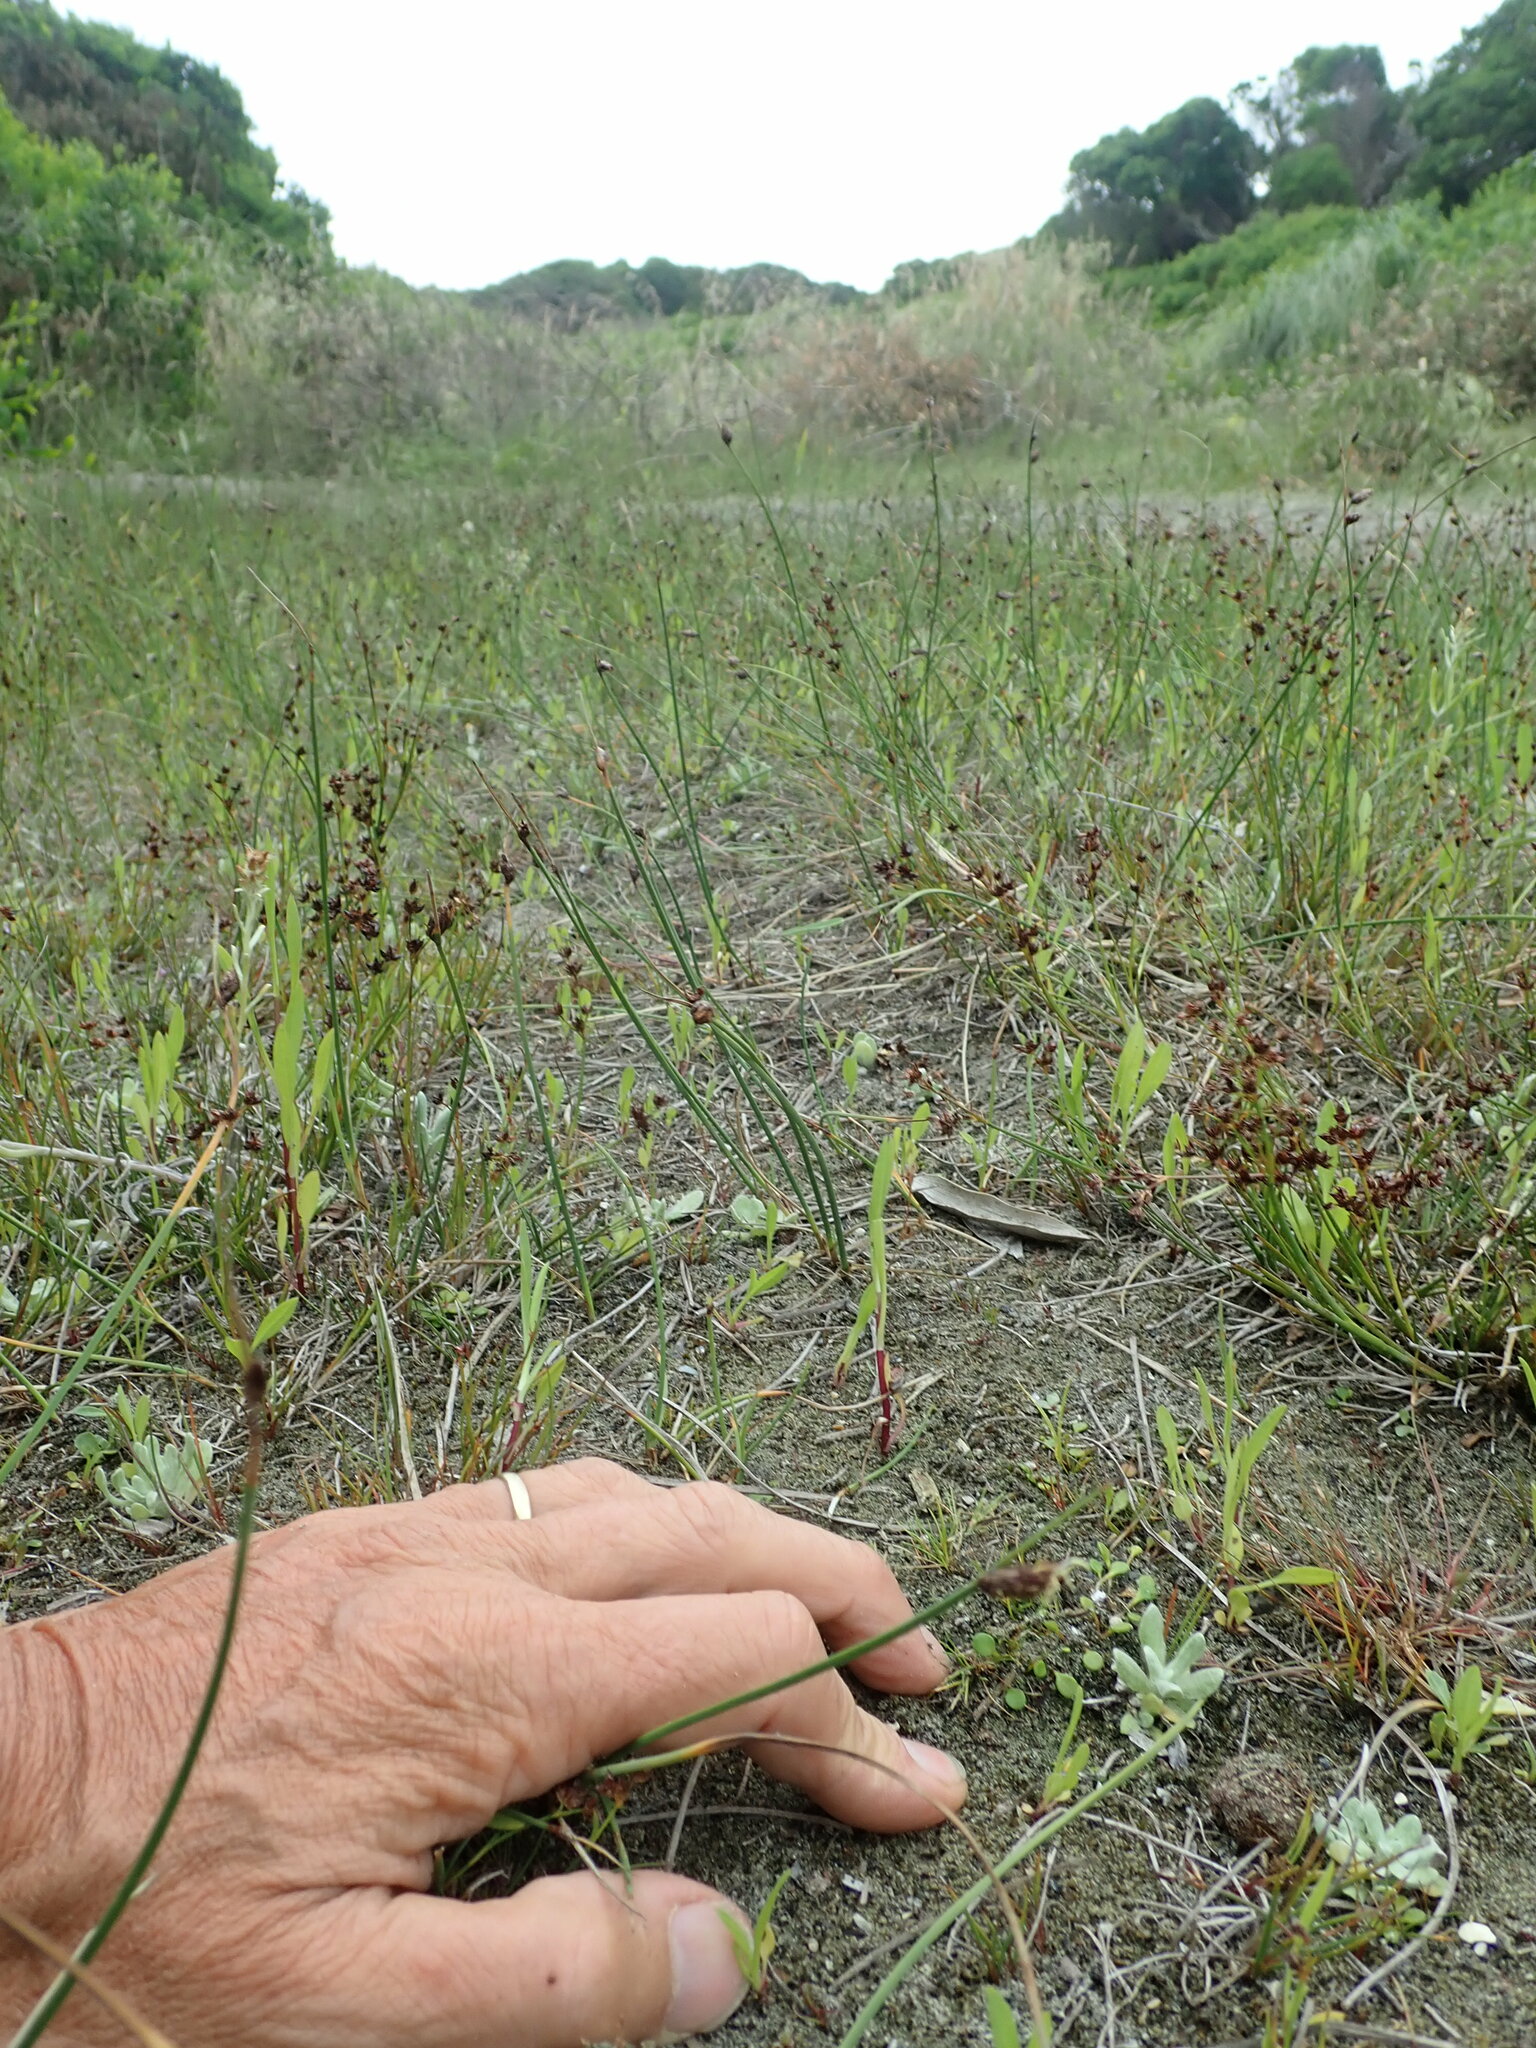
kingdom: Plantae
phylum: Tracheophyta
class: Liliopsida
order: Poales
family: Juncaceae
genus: Juncus
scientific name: Juncus bufonius
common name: Toad rush
